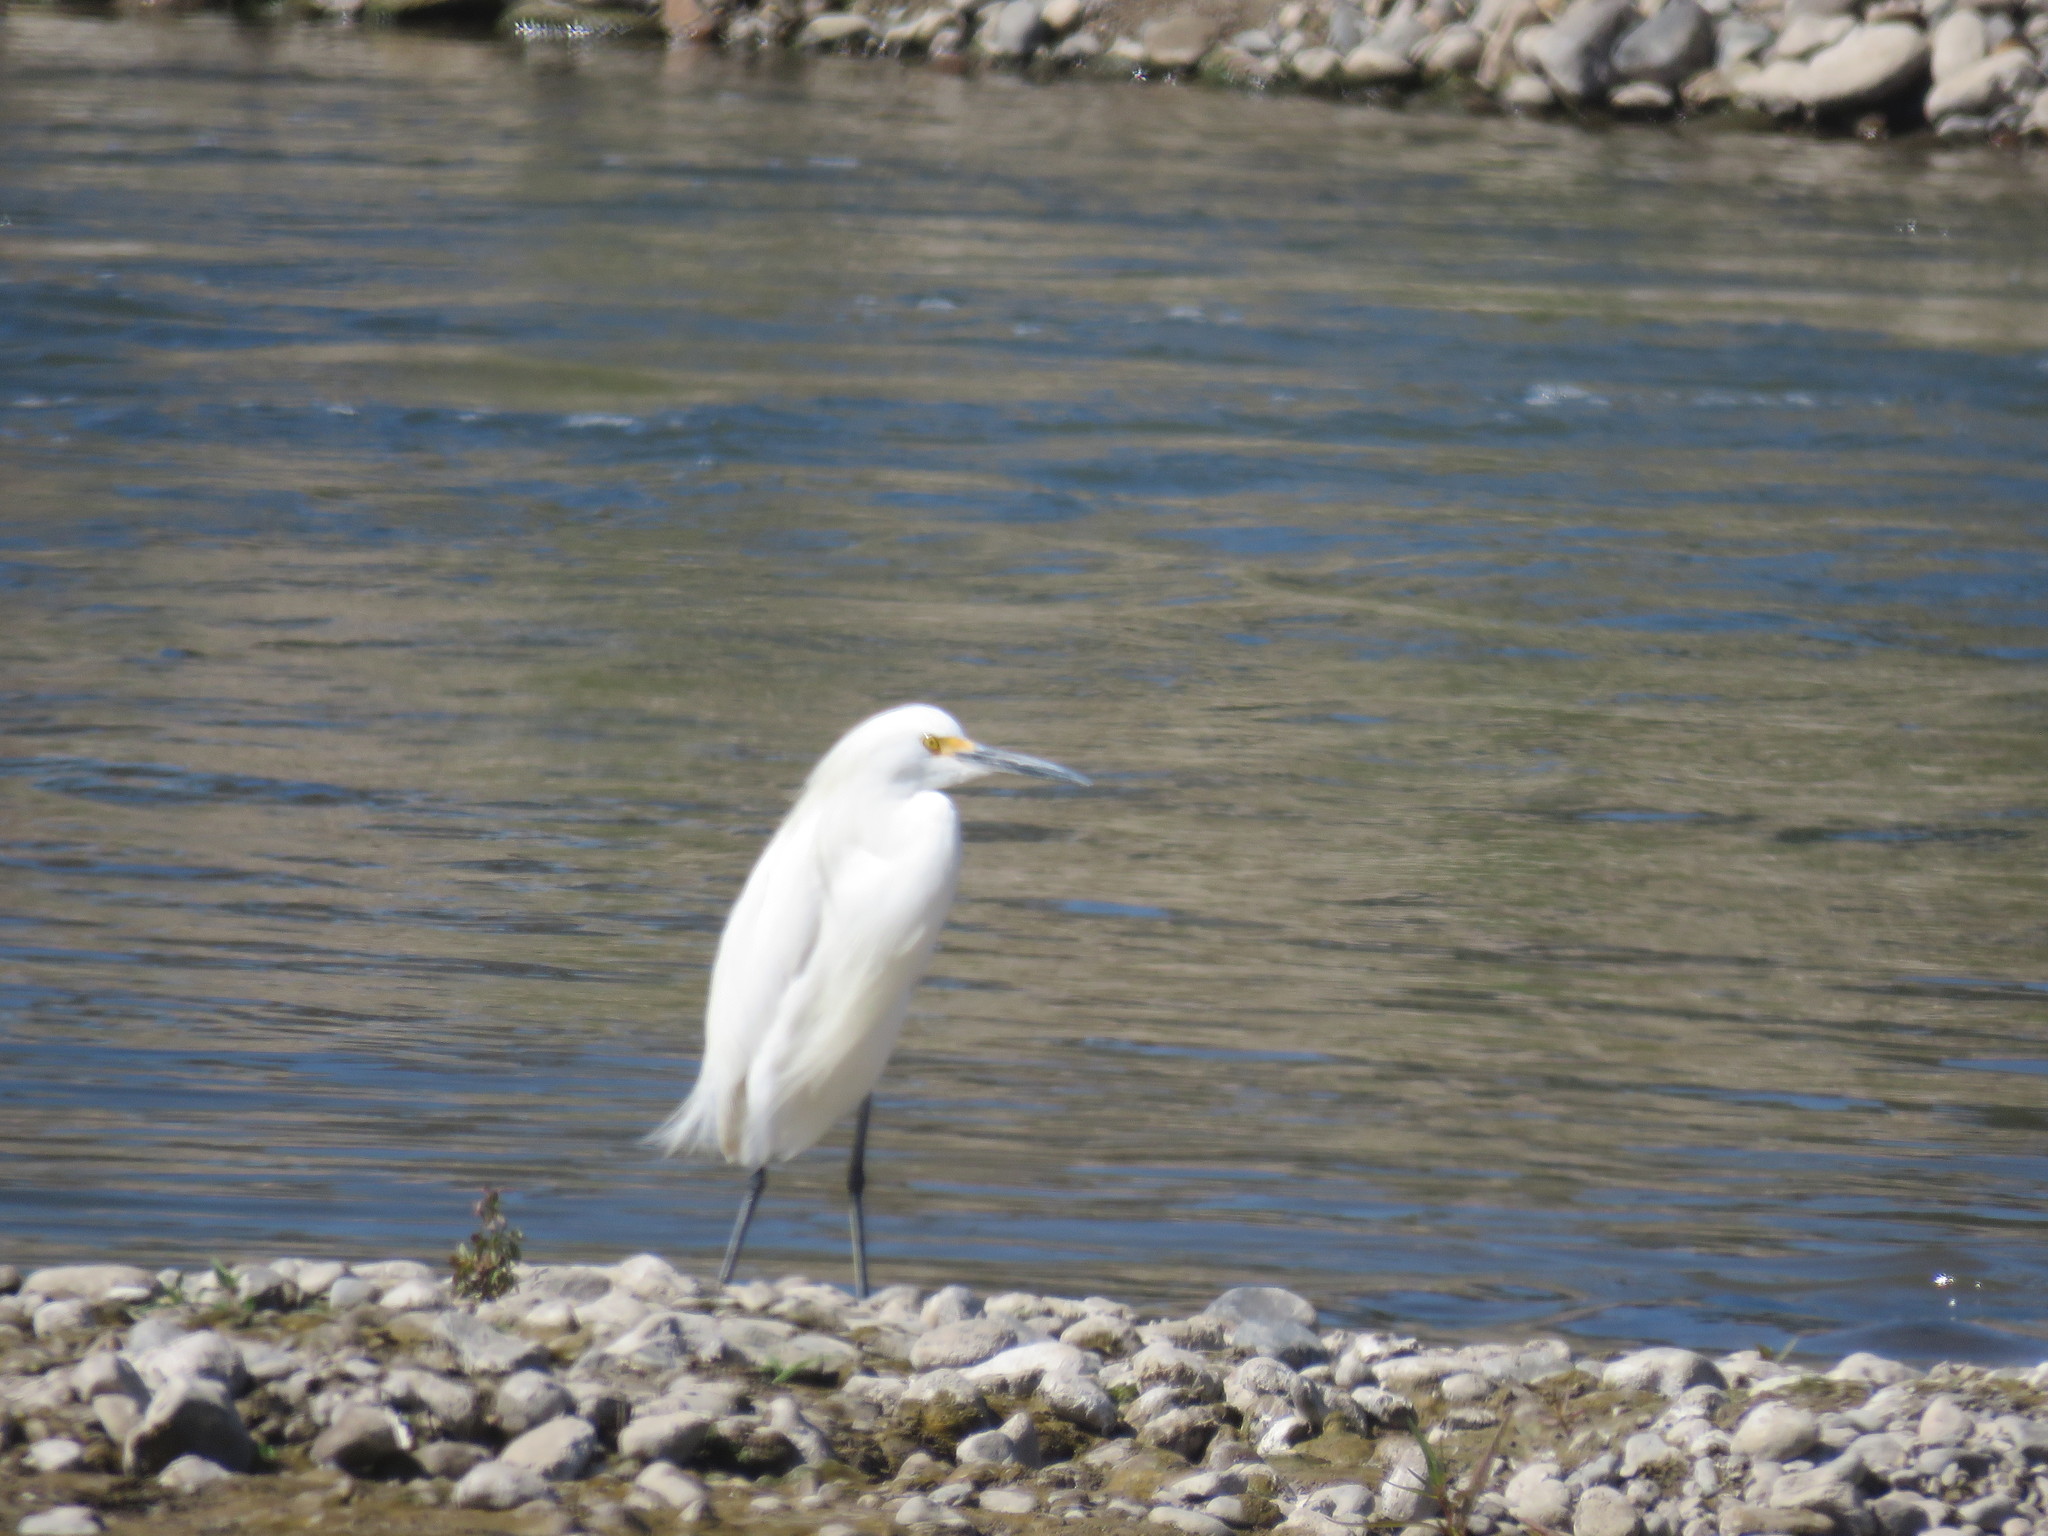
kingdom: Animalia
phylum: Chordata
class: Aves
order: Pelecaniformes
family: Ardeidae
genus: Egretta
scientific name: Egretta thula
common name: Snowy egret
